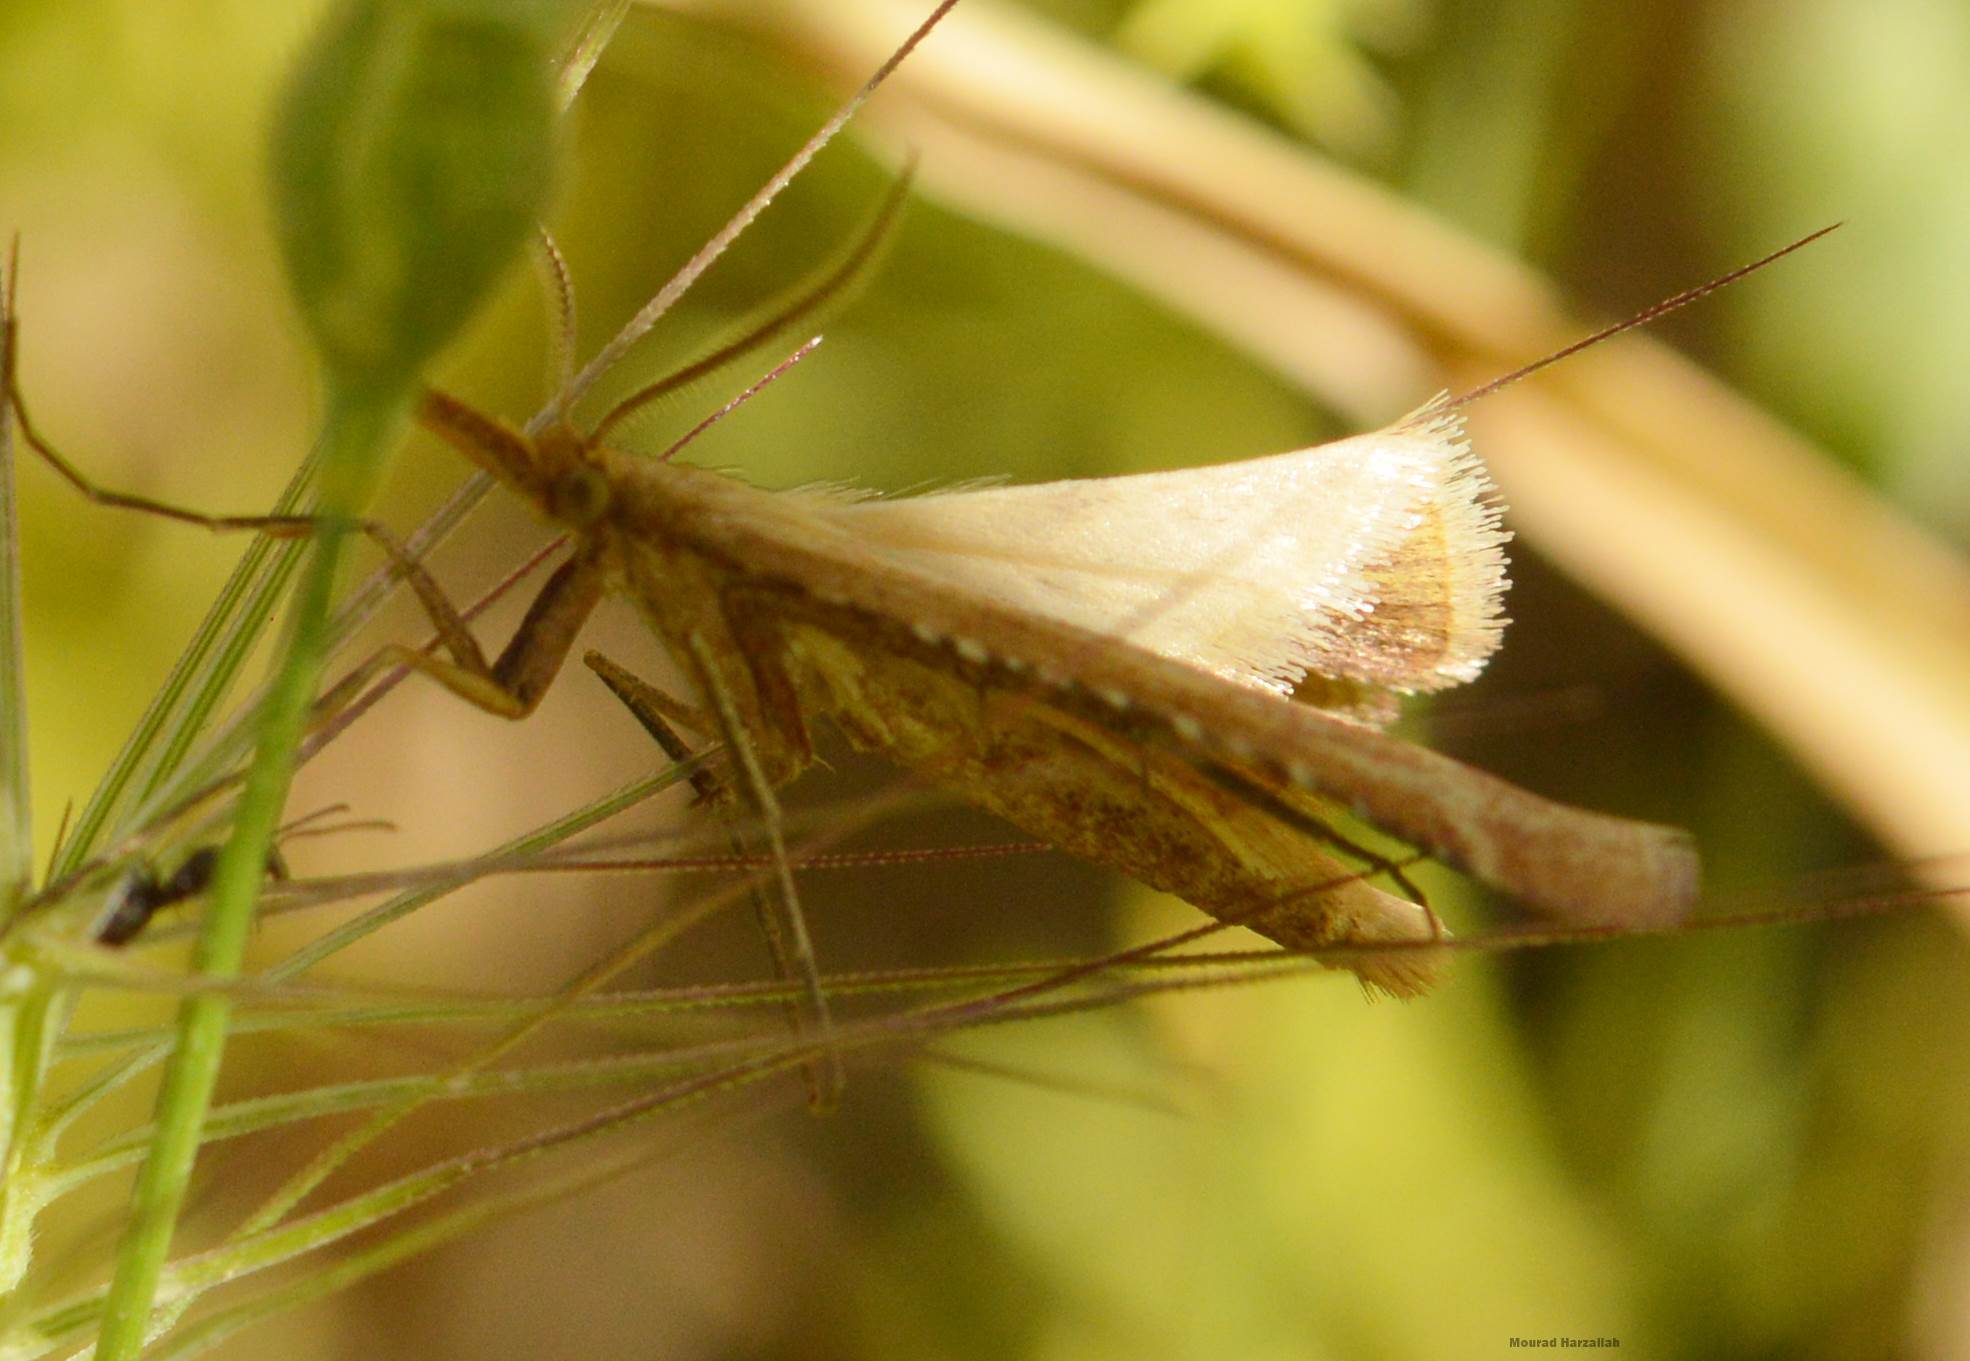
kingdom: Animalia
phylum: Arthropoda
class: Insecta
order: Lepidoptera
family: Pyralidae
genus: Synaphe
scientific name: Synaphe punctalis
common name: Long-legged tabby
